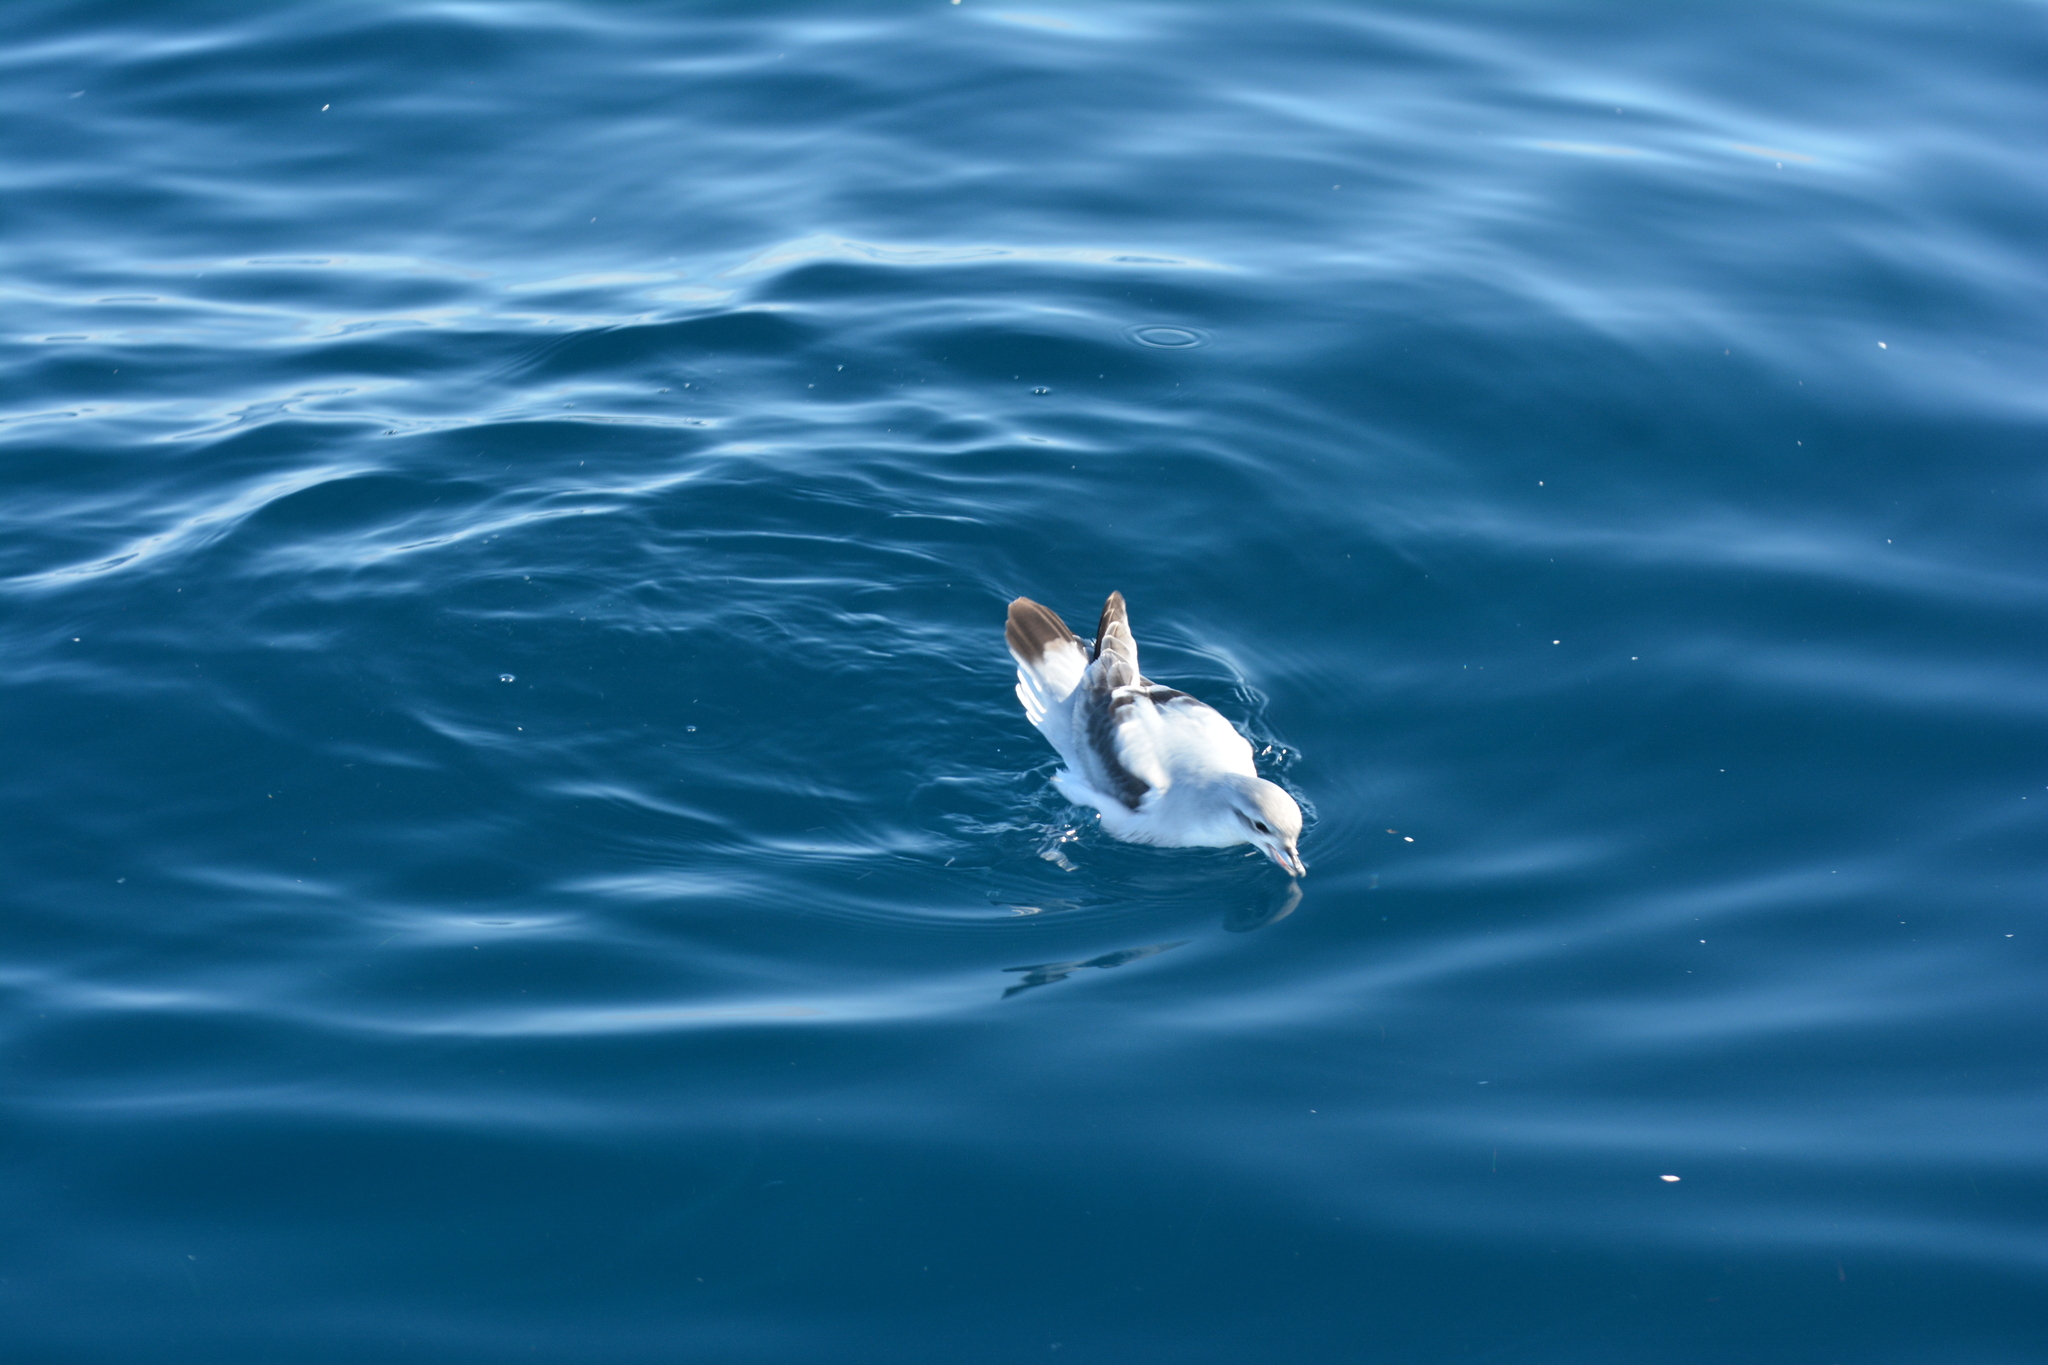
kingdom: Animalia
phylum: Chordata
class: Aves
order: Procellariiformes
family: Procellariidae
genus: Pachyptila
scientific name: Pachyptila turtur
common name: Fairy prion
